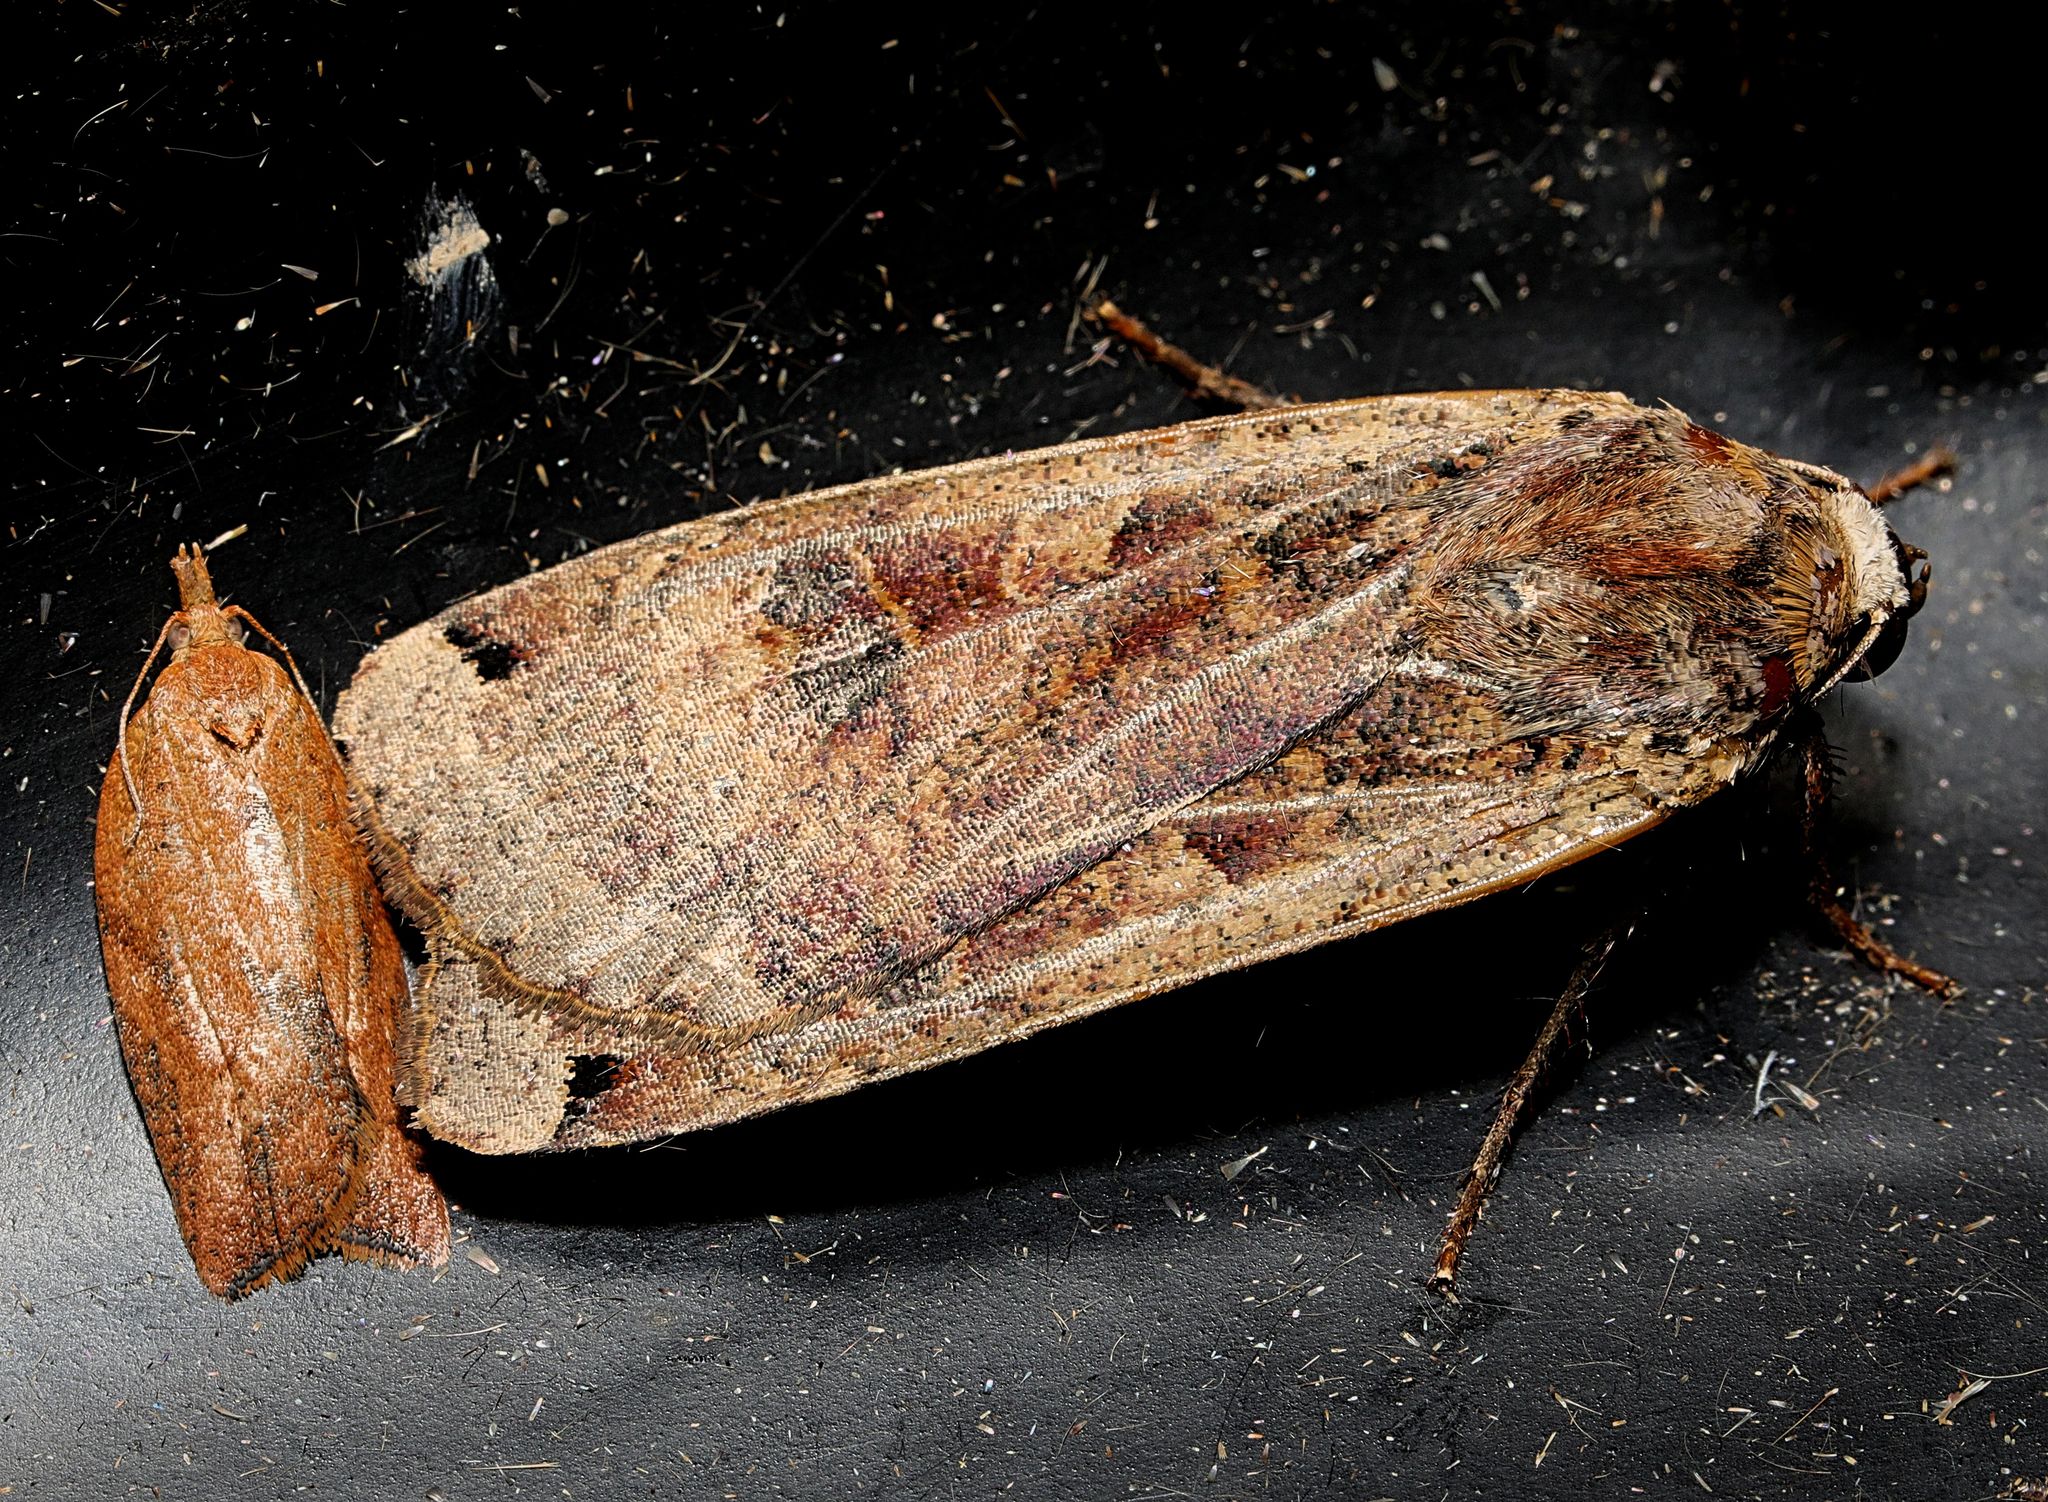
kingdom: Animalia
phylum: Arthropoda
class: Insecta
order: Lepidoptera
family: Noctuidae
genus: Noctua
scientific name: Noctua pronuba
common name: Large yellow underwing
